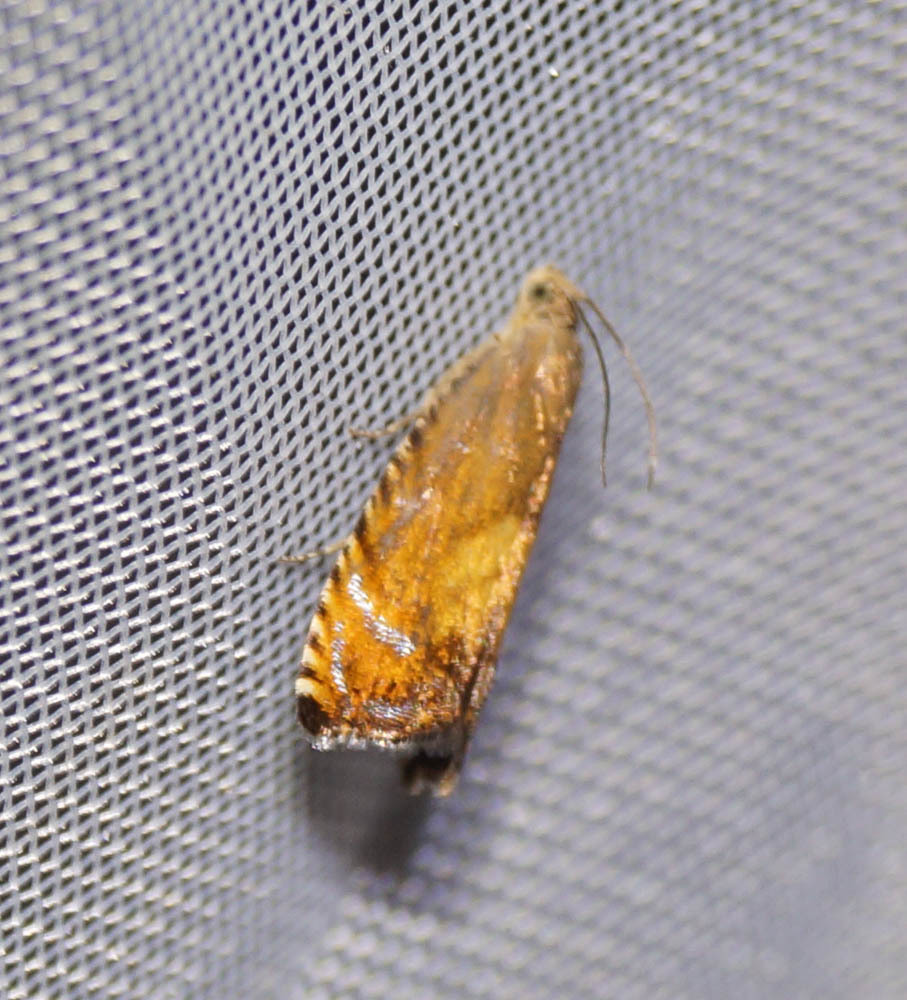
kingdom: Animalia
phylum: Arthropoda
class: Insecta
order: Lepidoptera
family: Tortricidae
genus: Pammene
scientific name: Pammene aurita
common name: Sycamore piercer
